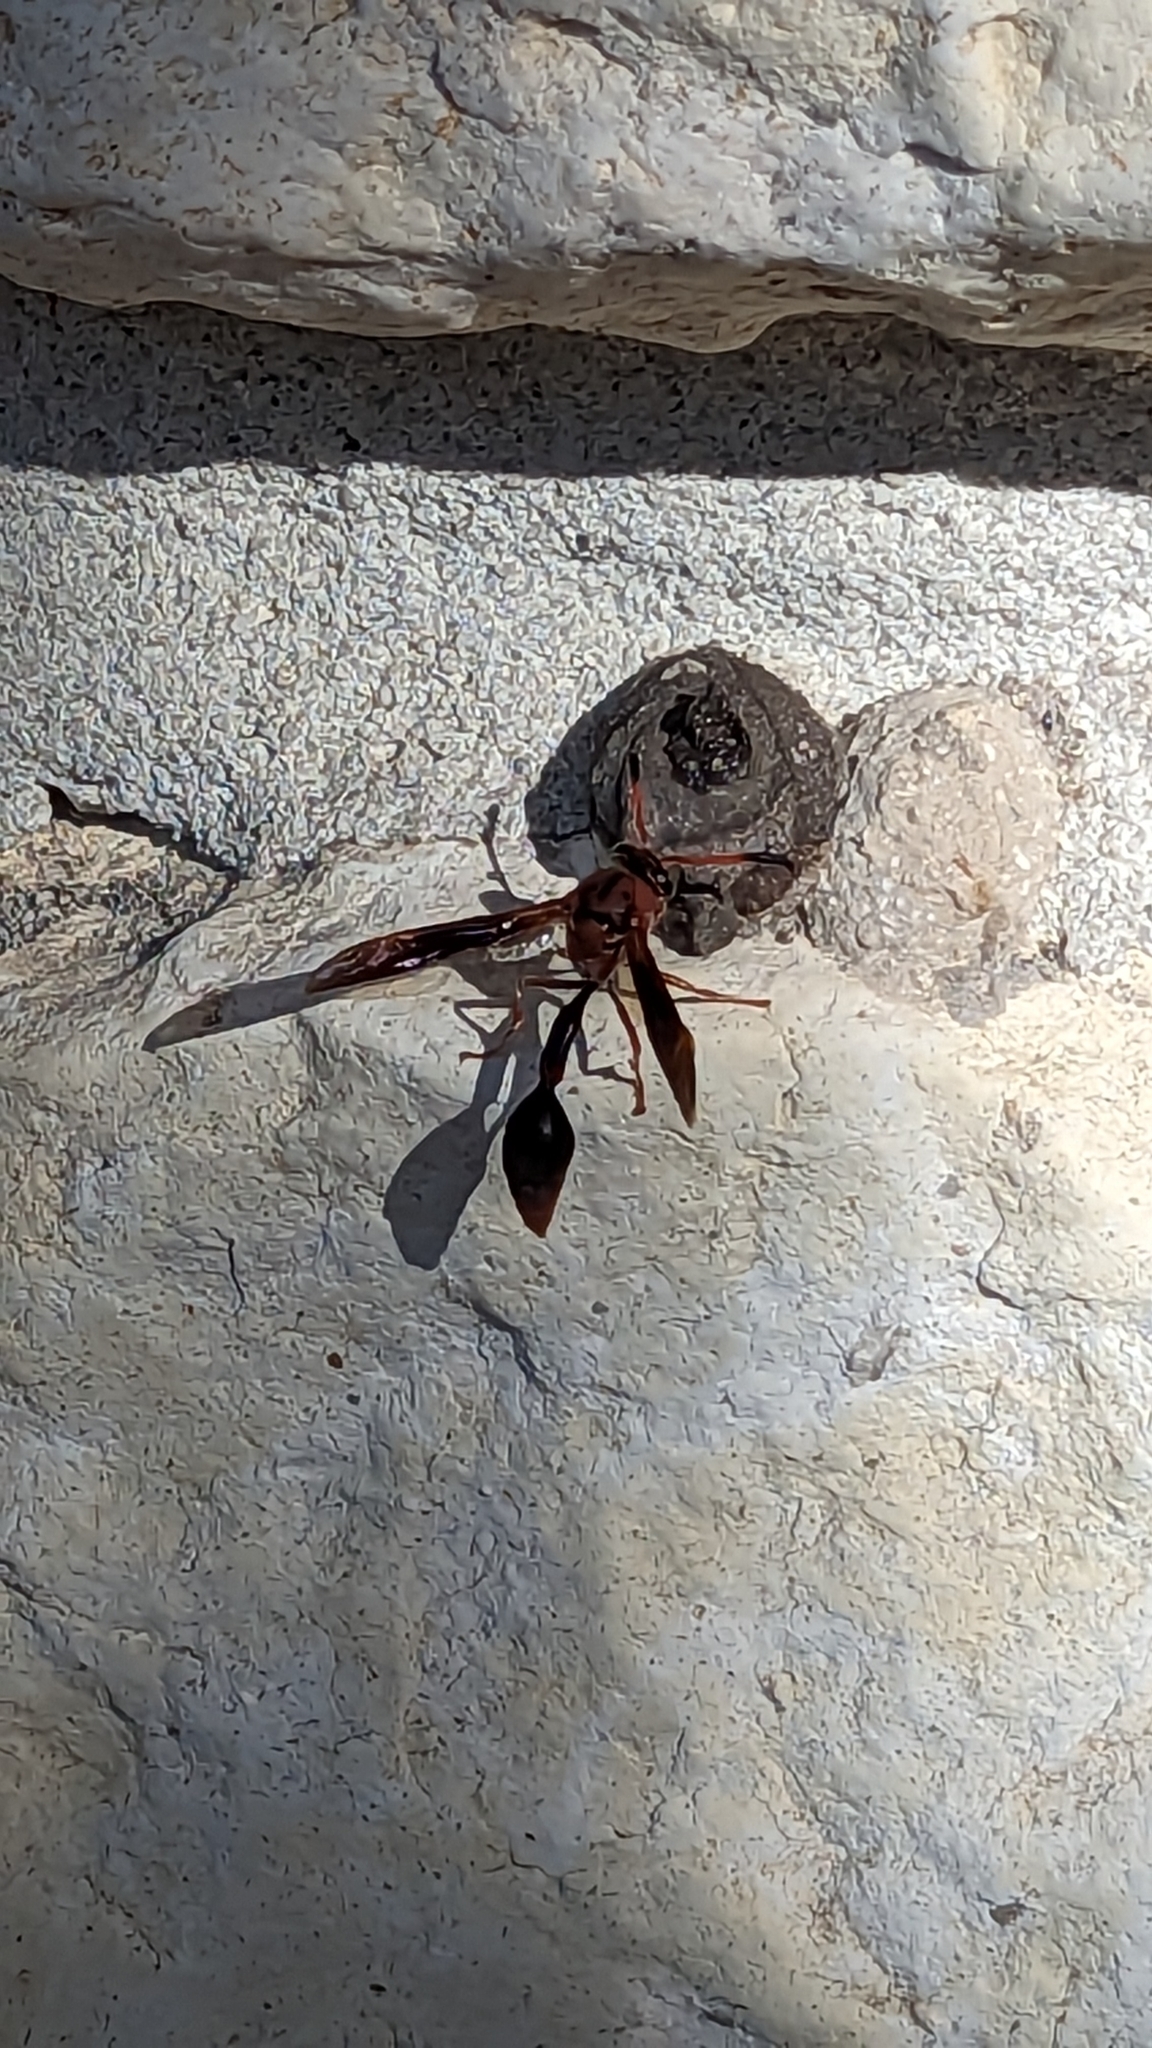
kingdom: Animalia
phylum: Arthropoda
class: Insecta
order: Hymenoptera
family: Eumenidae
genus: Zeta
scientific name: Zeta argillaceum
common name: Potter wasp
